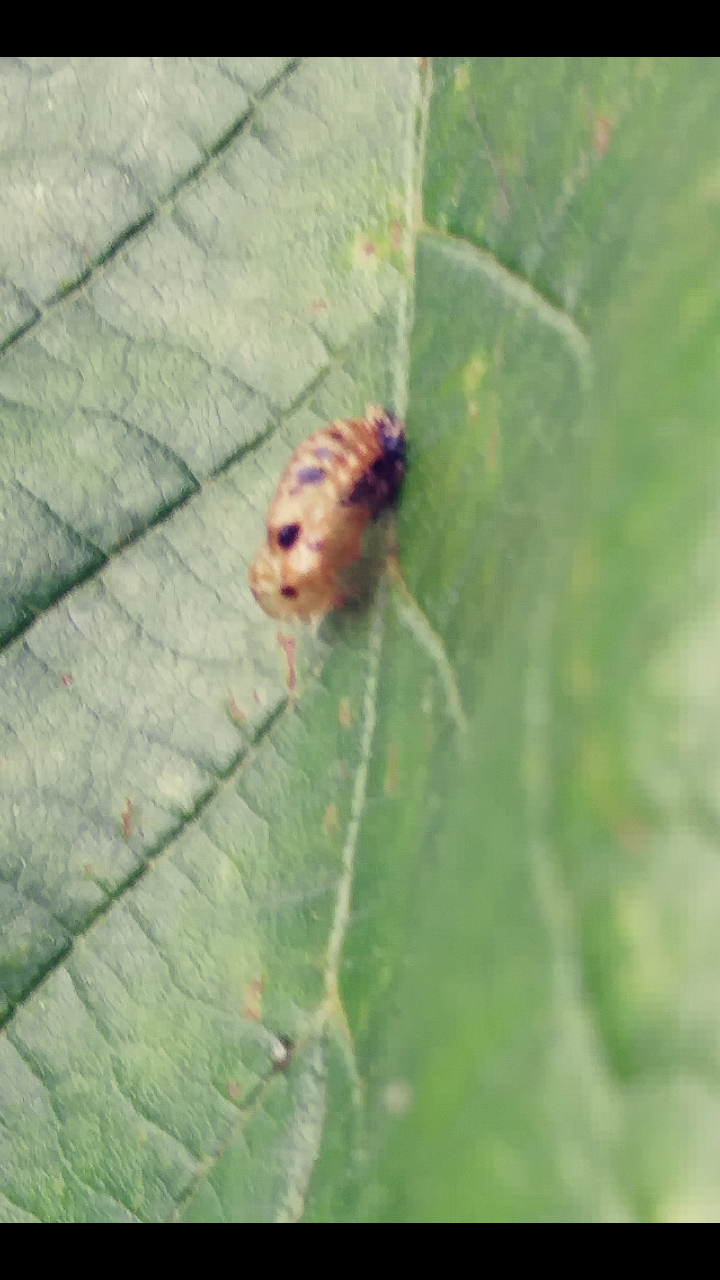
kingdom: Animalia
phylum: Arthropoda
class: Insecta
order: Coleoptera
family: Coccinellidae
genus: Harmonia
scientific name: Harmonia axyridis
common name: Harlequin ladybird
